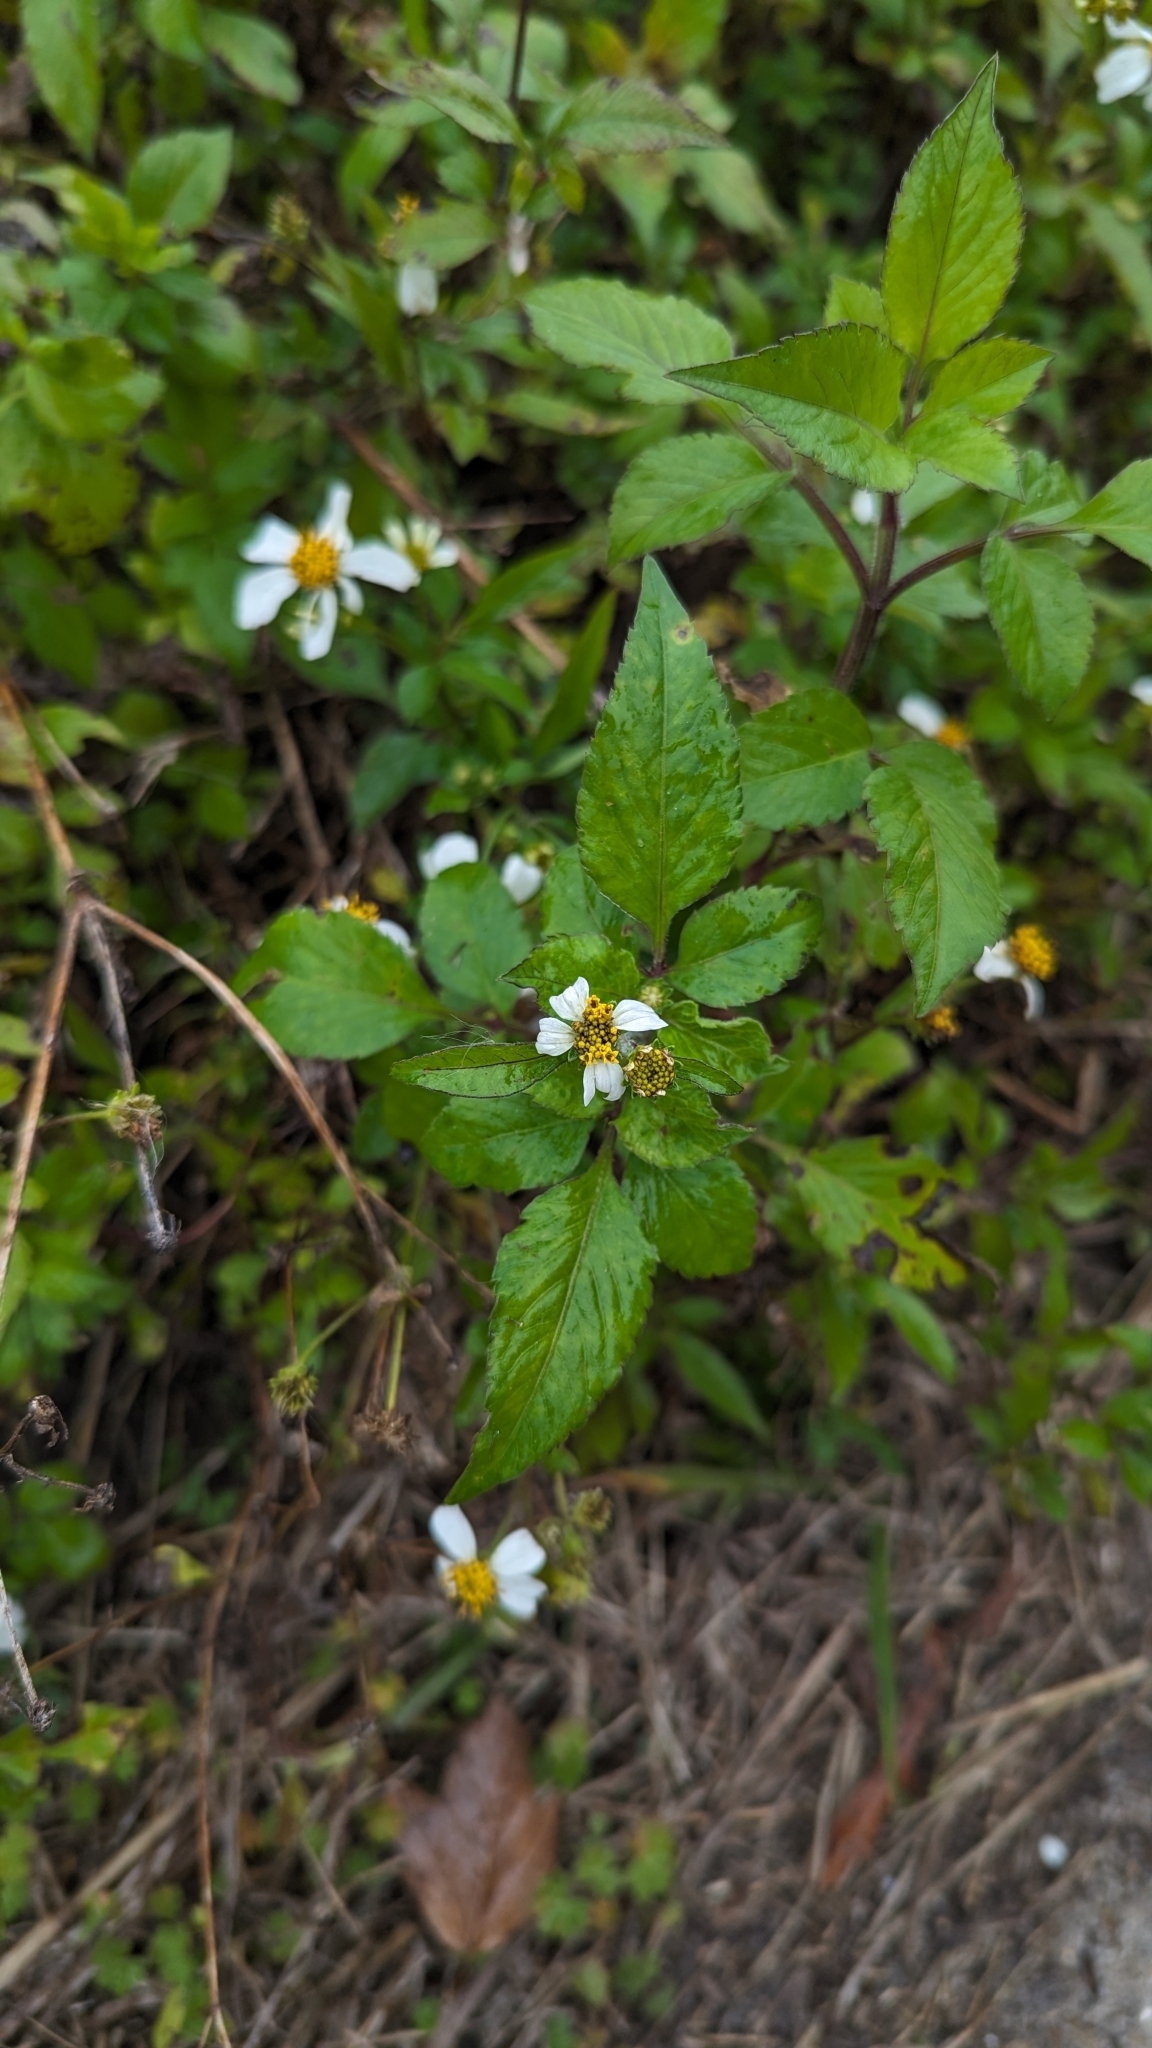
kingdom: Plantae
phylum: Tracheophyta
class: Magnoliopsida
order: Asterales
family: Asteraceae
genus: Bidens
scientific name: Bidens alba
